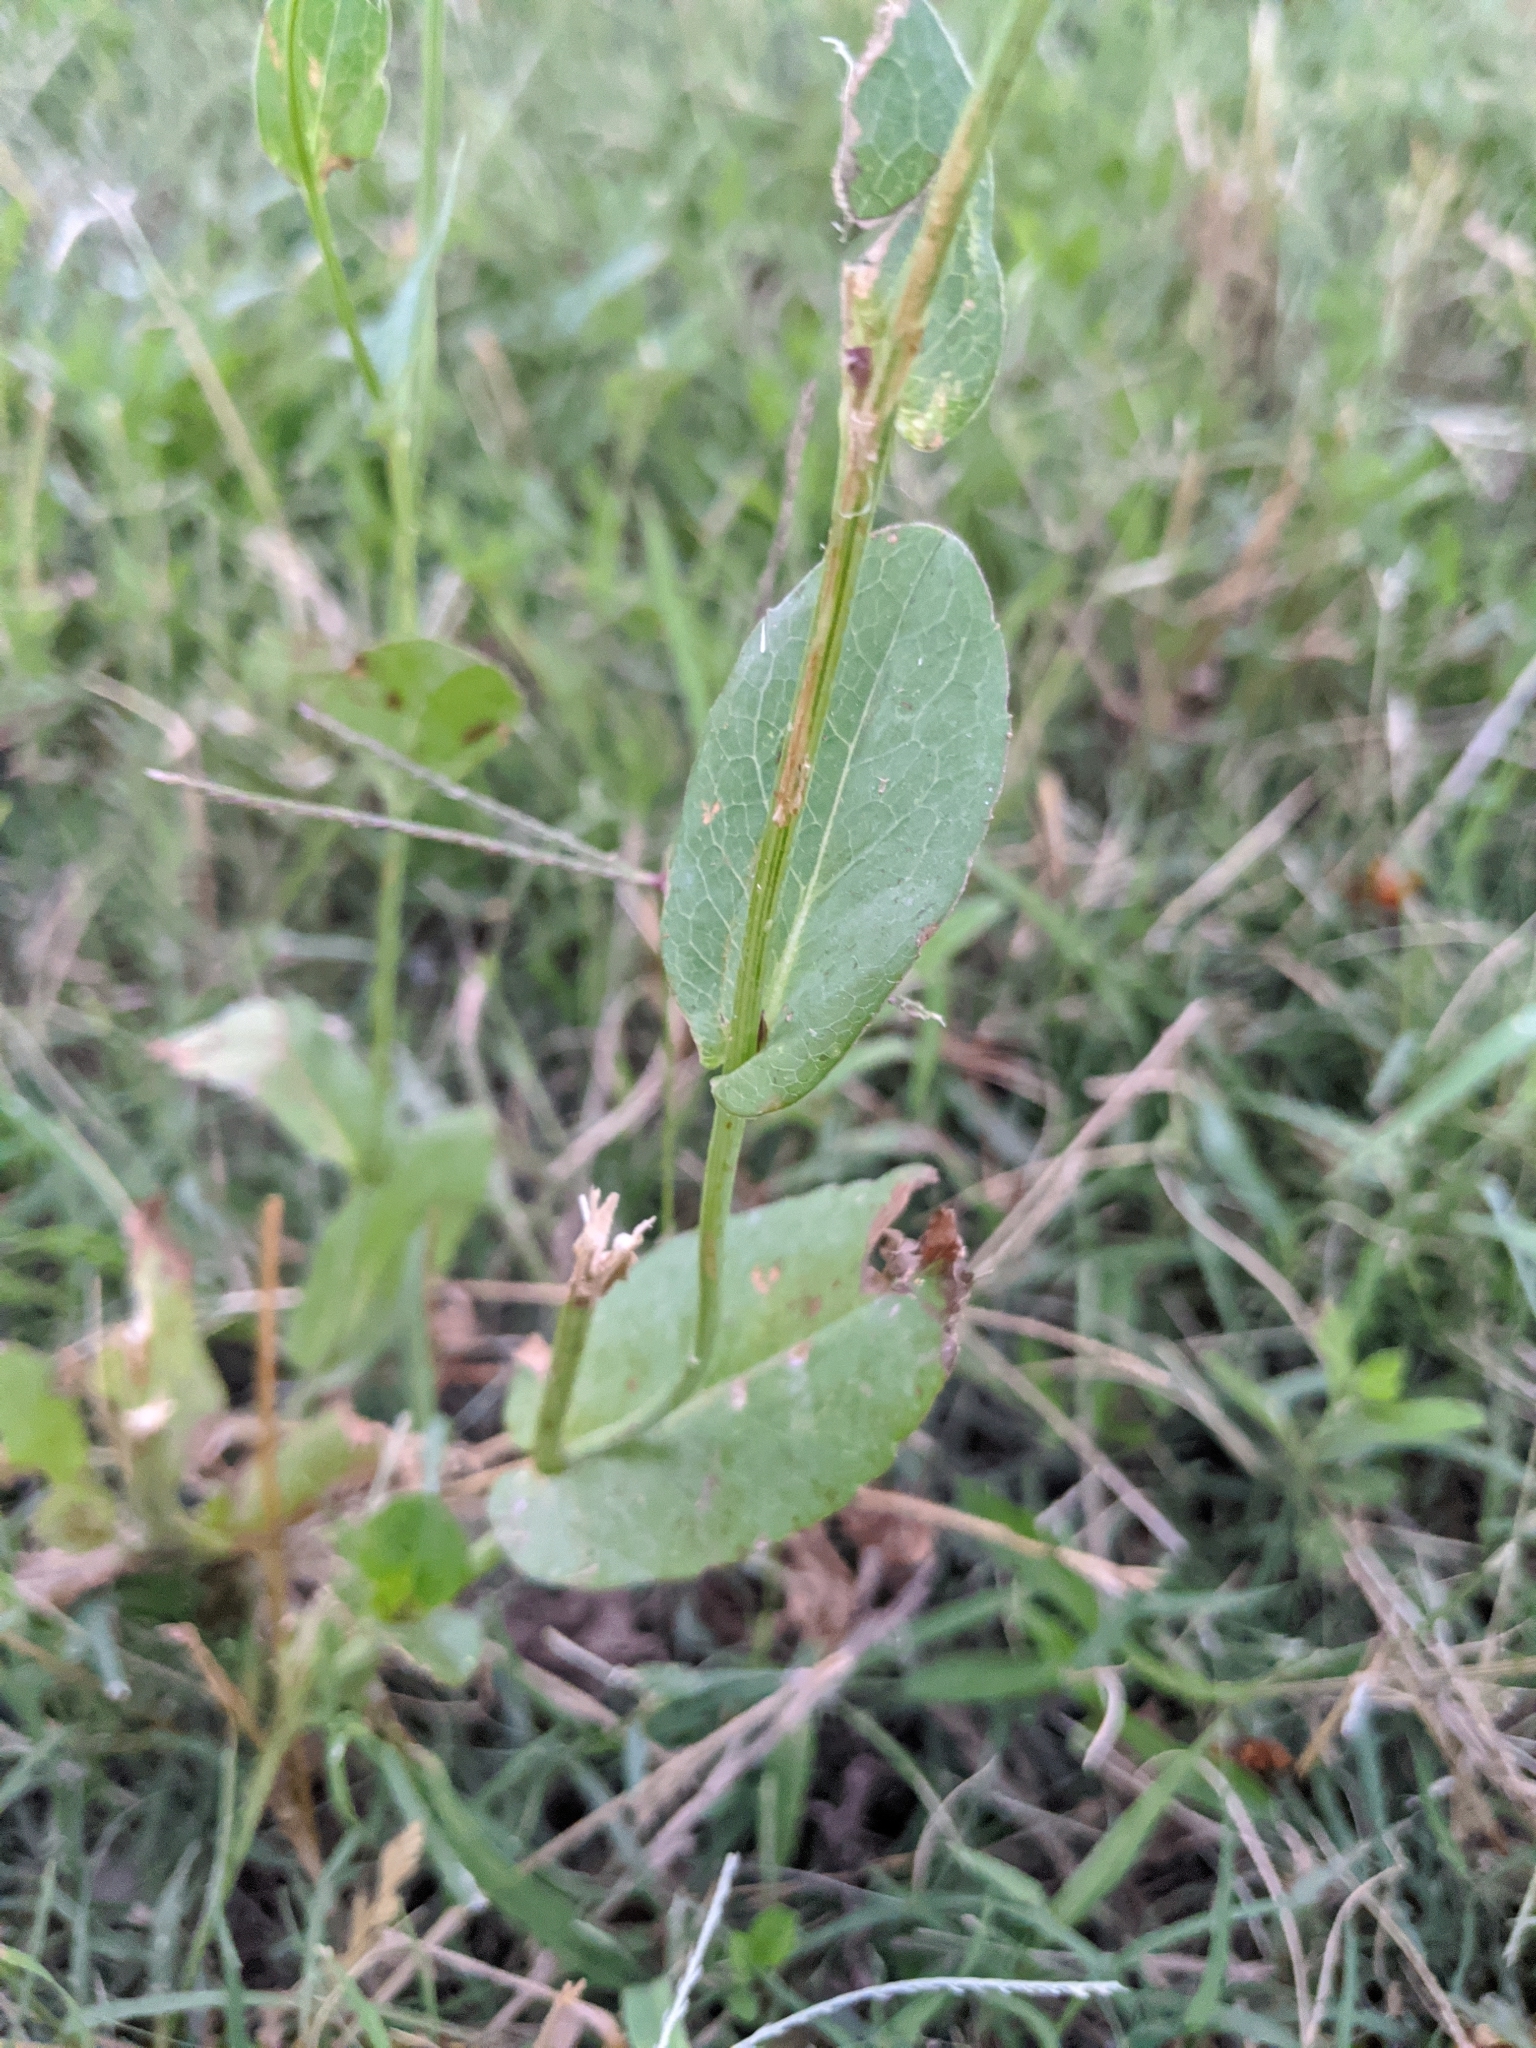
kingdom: Plantae
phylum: Tracheophyta
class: Magnoliopsida
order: Asterales
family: Asteraceae
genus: Rudbeckia
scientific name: Rudbeckia amplexicaulis
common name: Clasping-leaf coneflower
